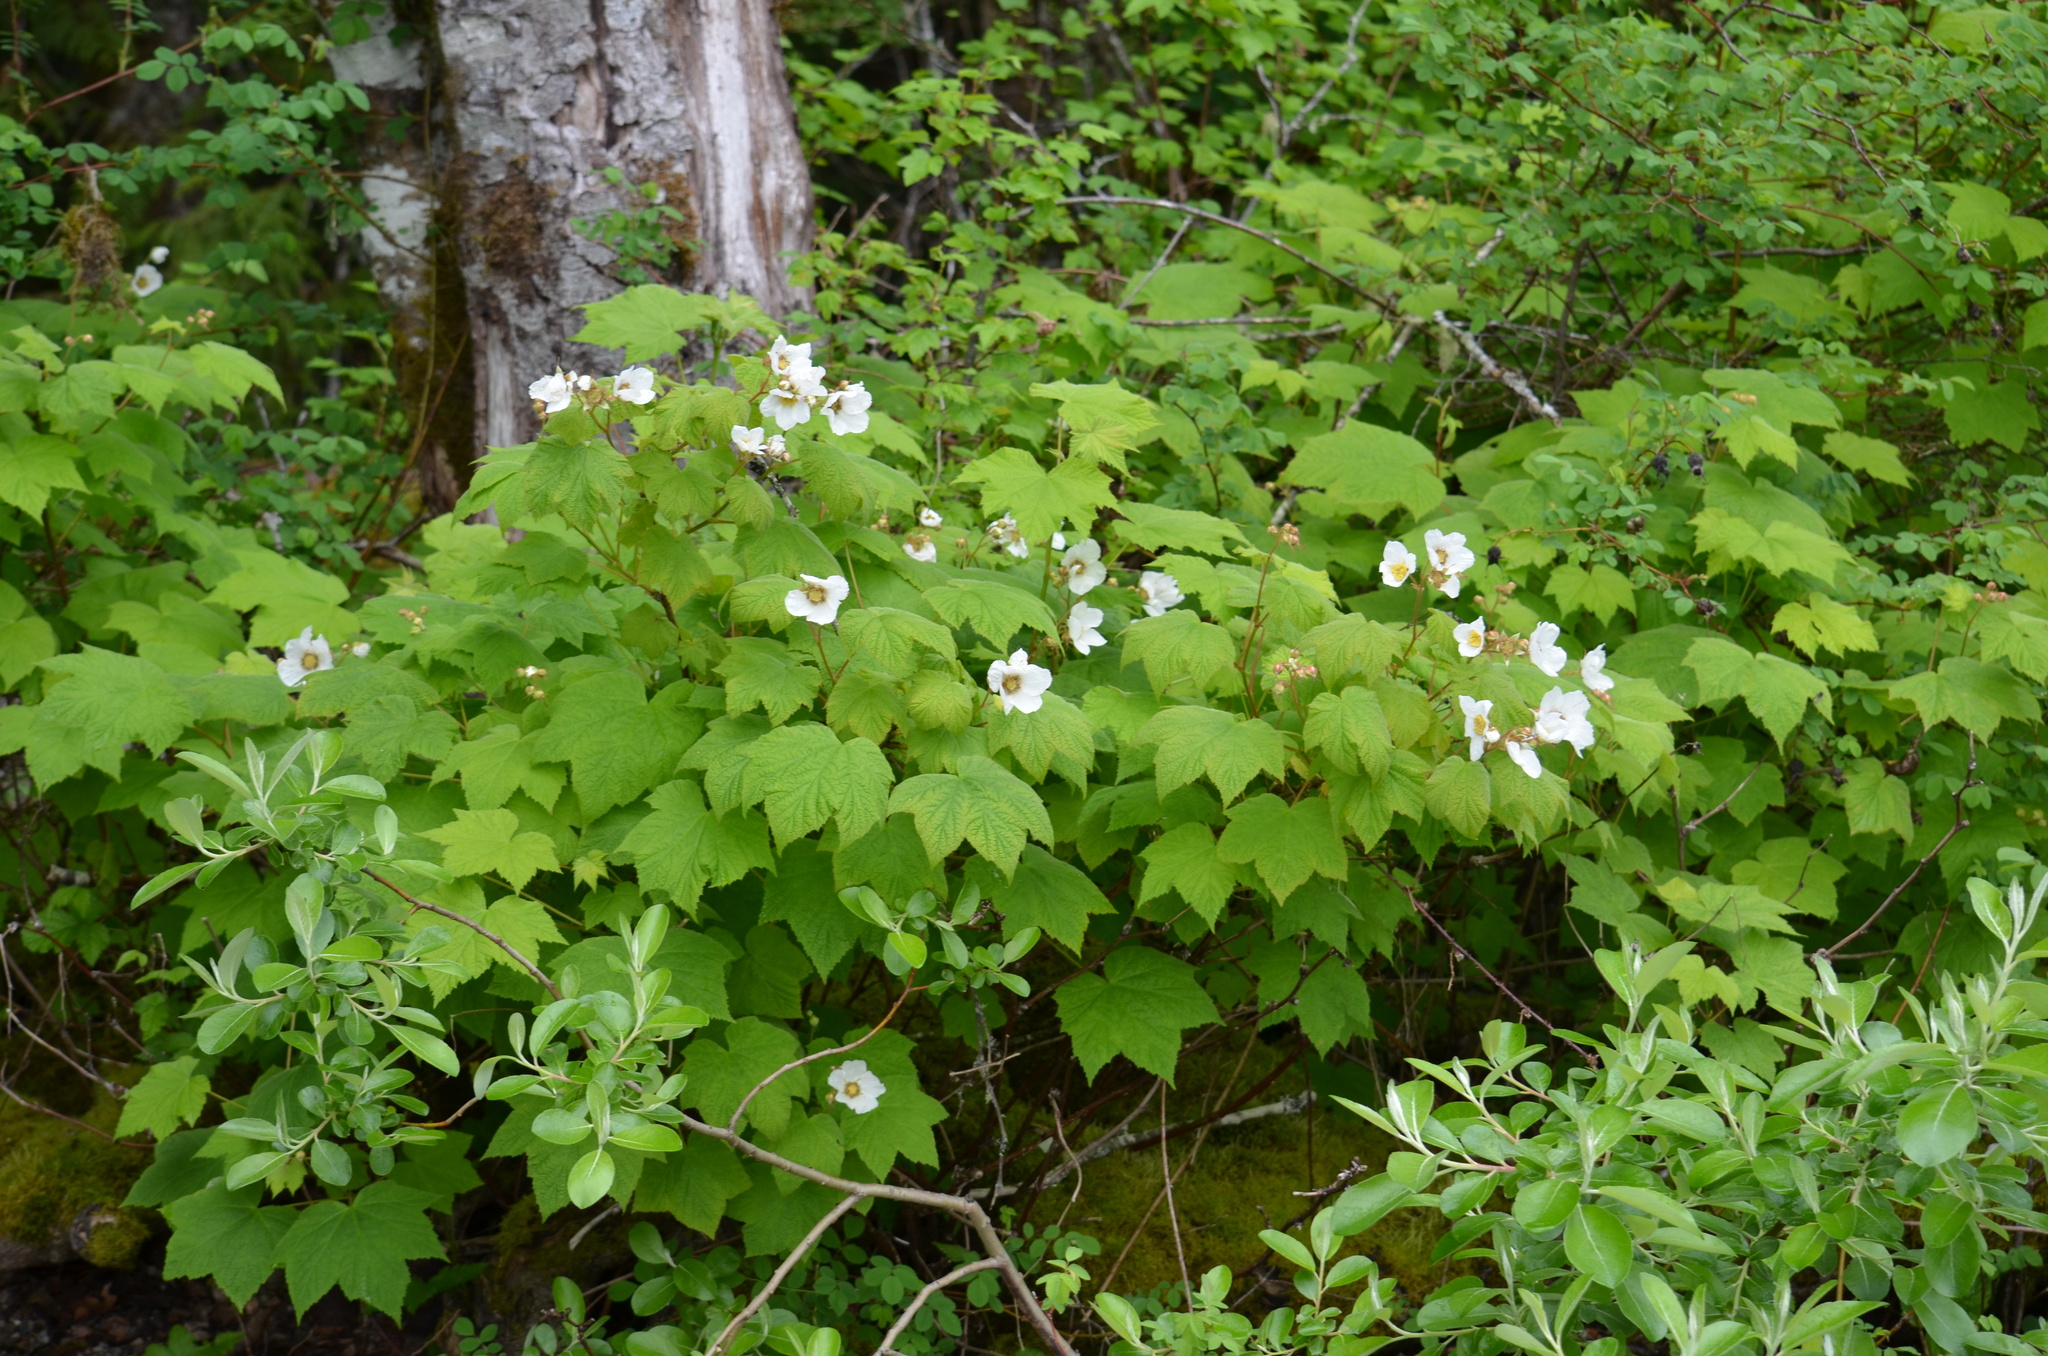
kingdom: Plantae
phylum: Tracheophyta
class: Magnoliopsida
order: Rosales
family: Rosaceae
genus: Rubus
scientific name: Rubus parviflorus
